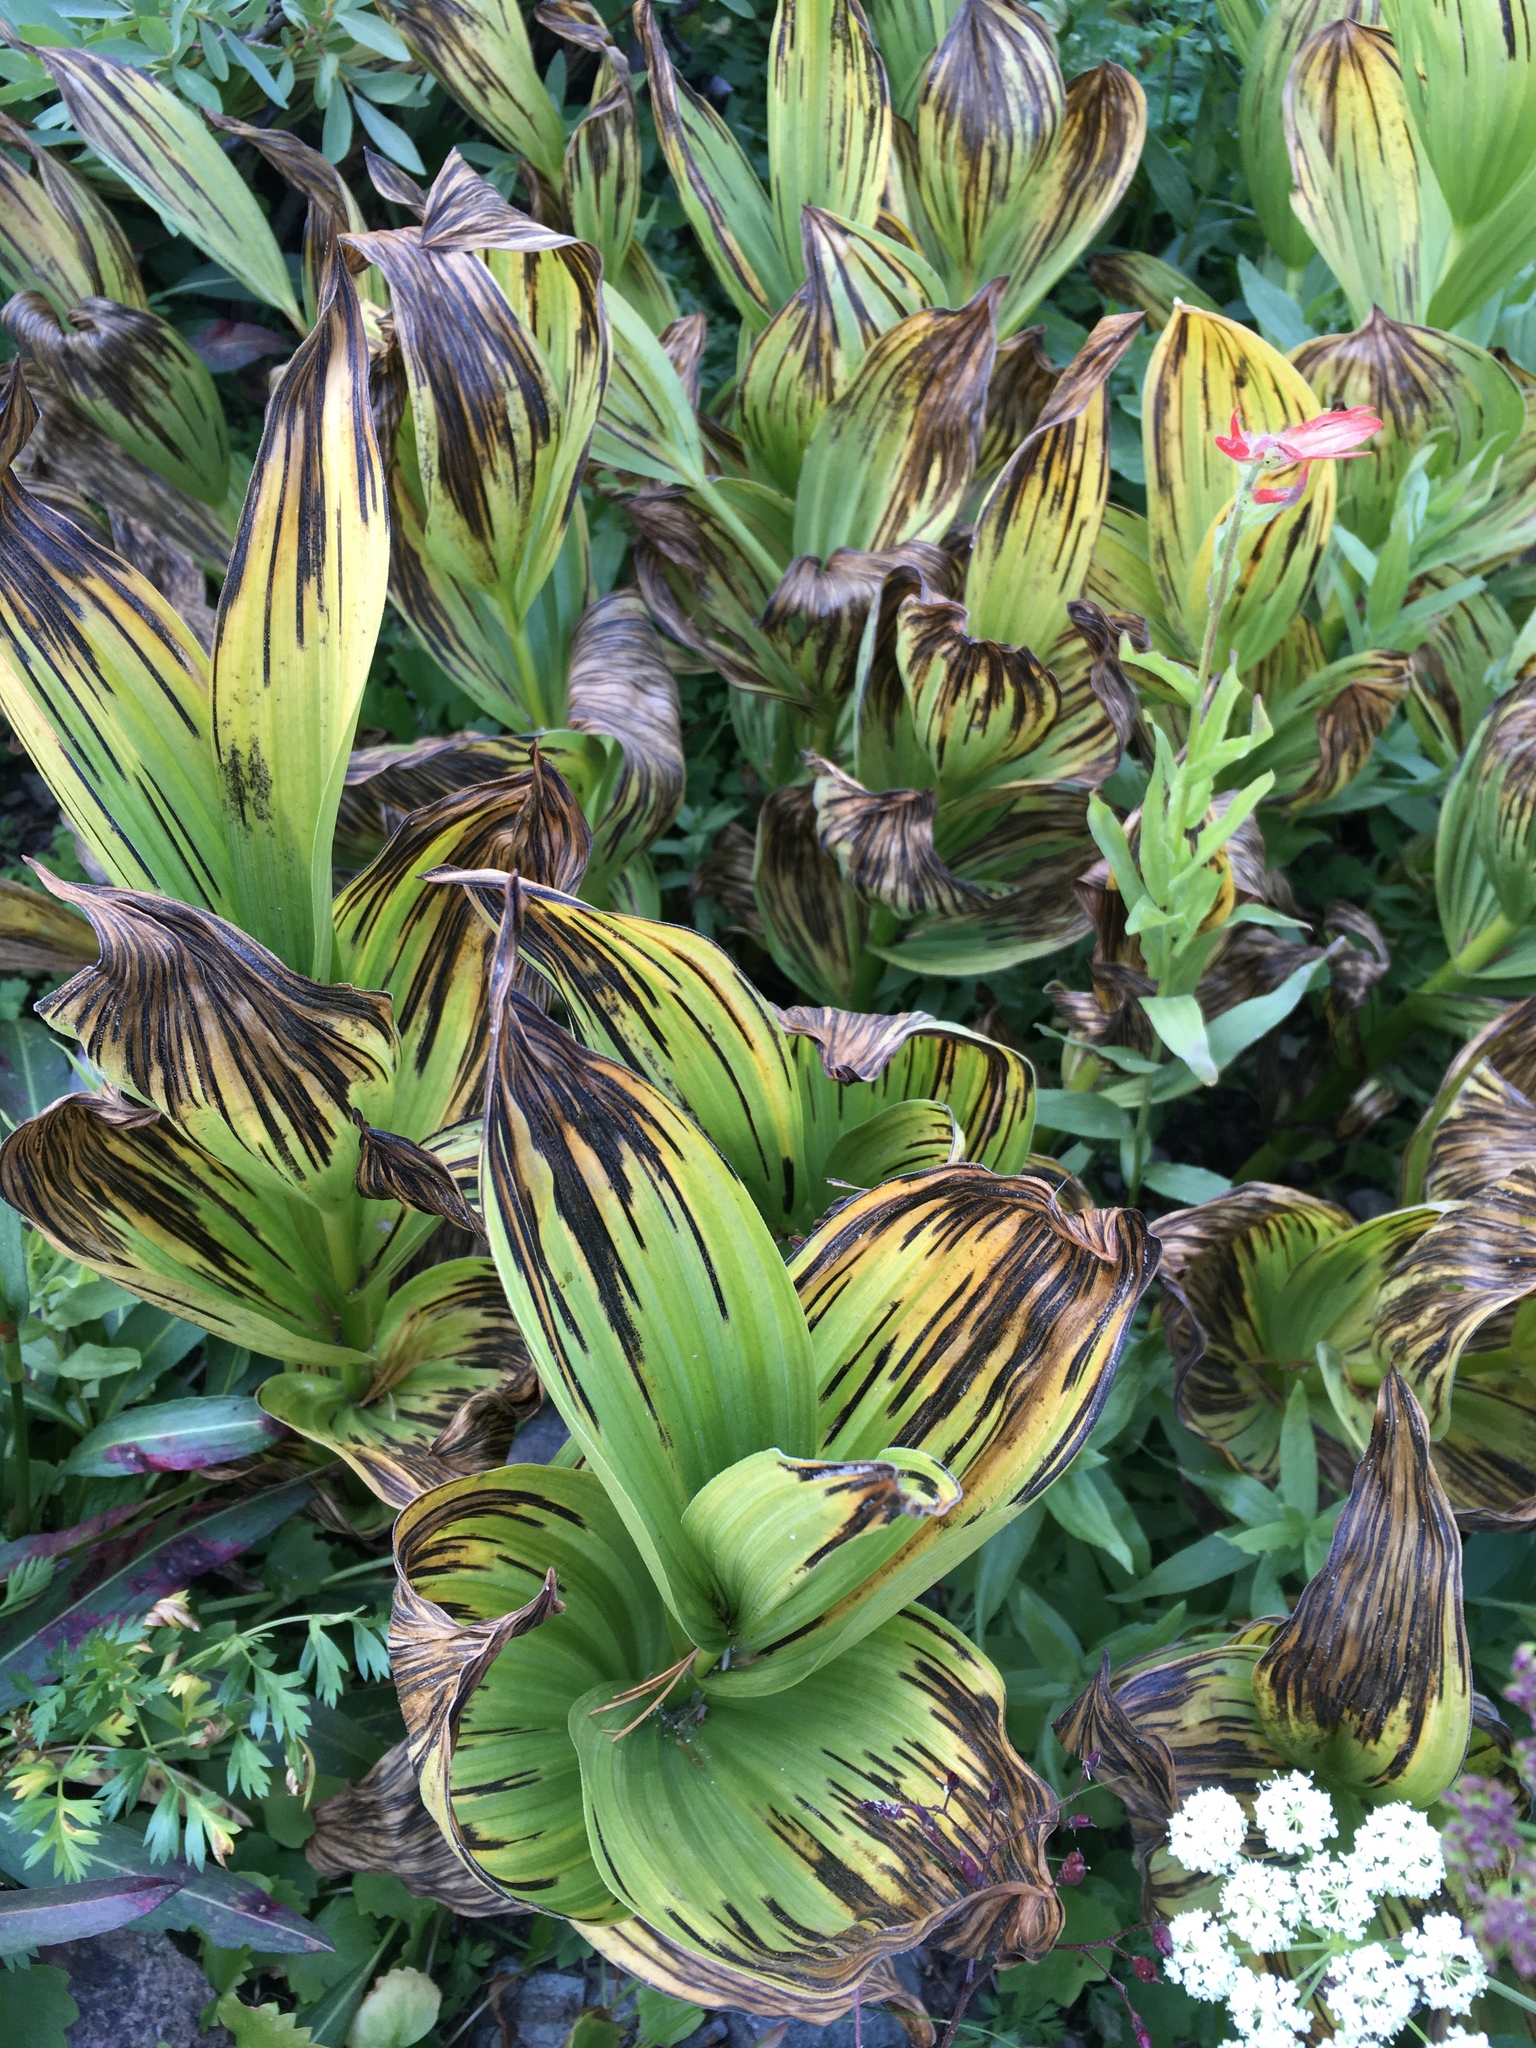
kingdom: Plantae
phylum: Tracheophyta
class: Liliopsida
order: Liliales
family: Melanthiaceae
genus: Veratrum
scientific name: Veratrum californicum
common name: California veratrum
